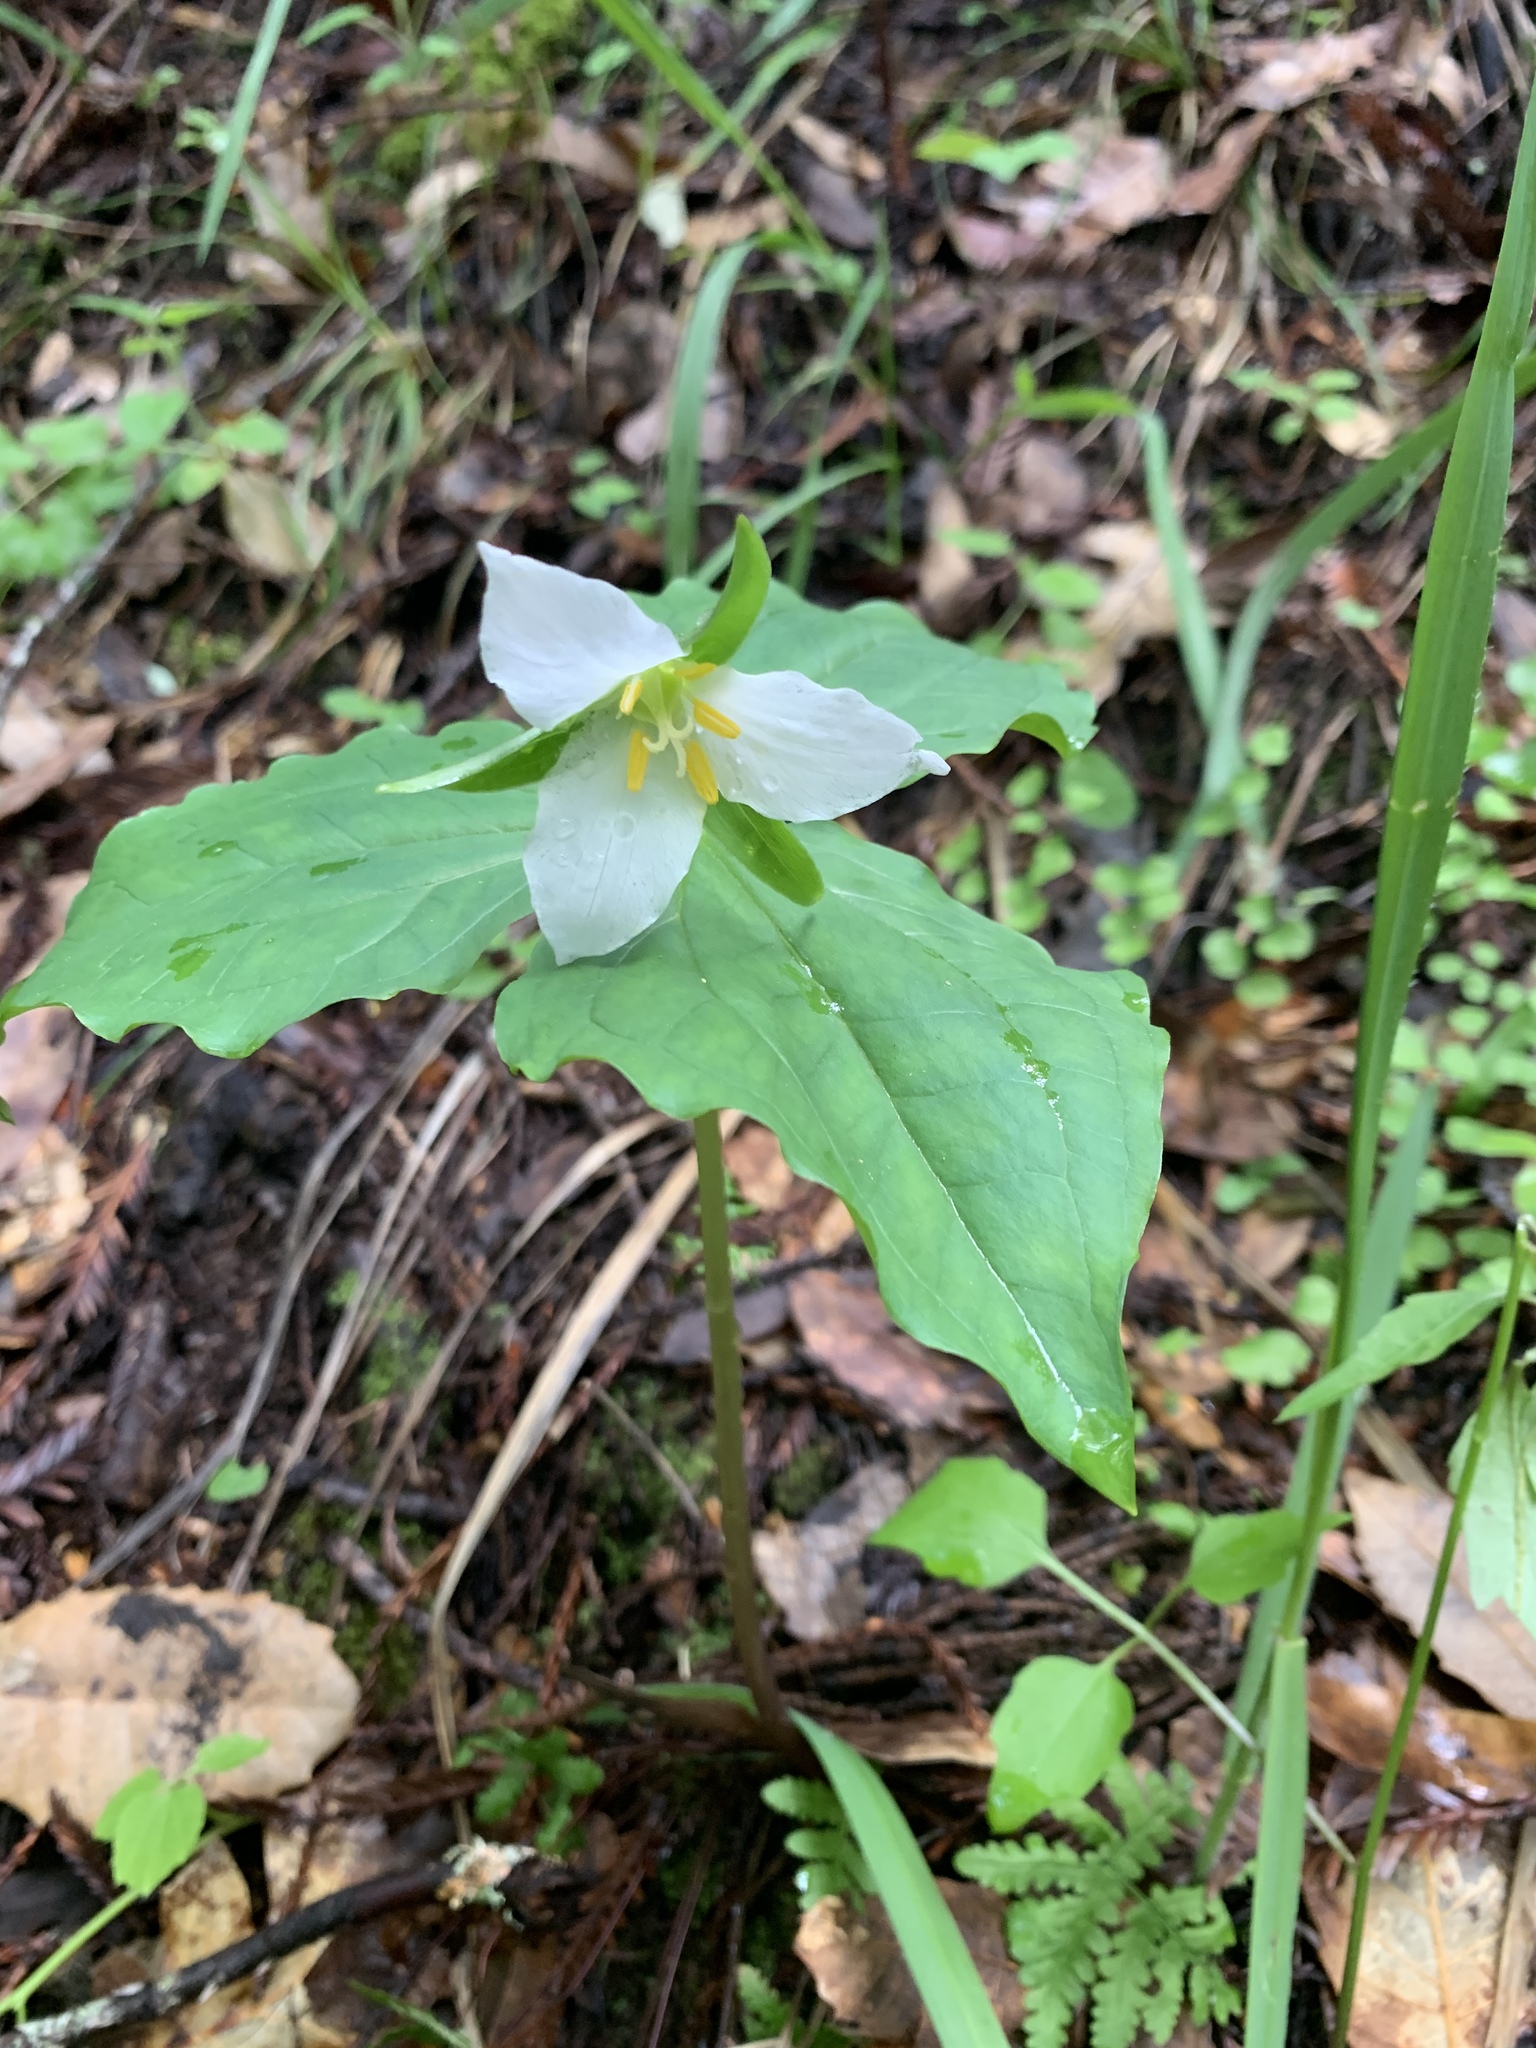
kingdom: Plantae
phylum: Tracheophyta
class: Liliopsida
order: Liliales
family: Melanthiaceae
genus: Trillium
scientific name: Trillium ovatum
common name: Pacific trillium
